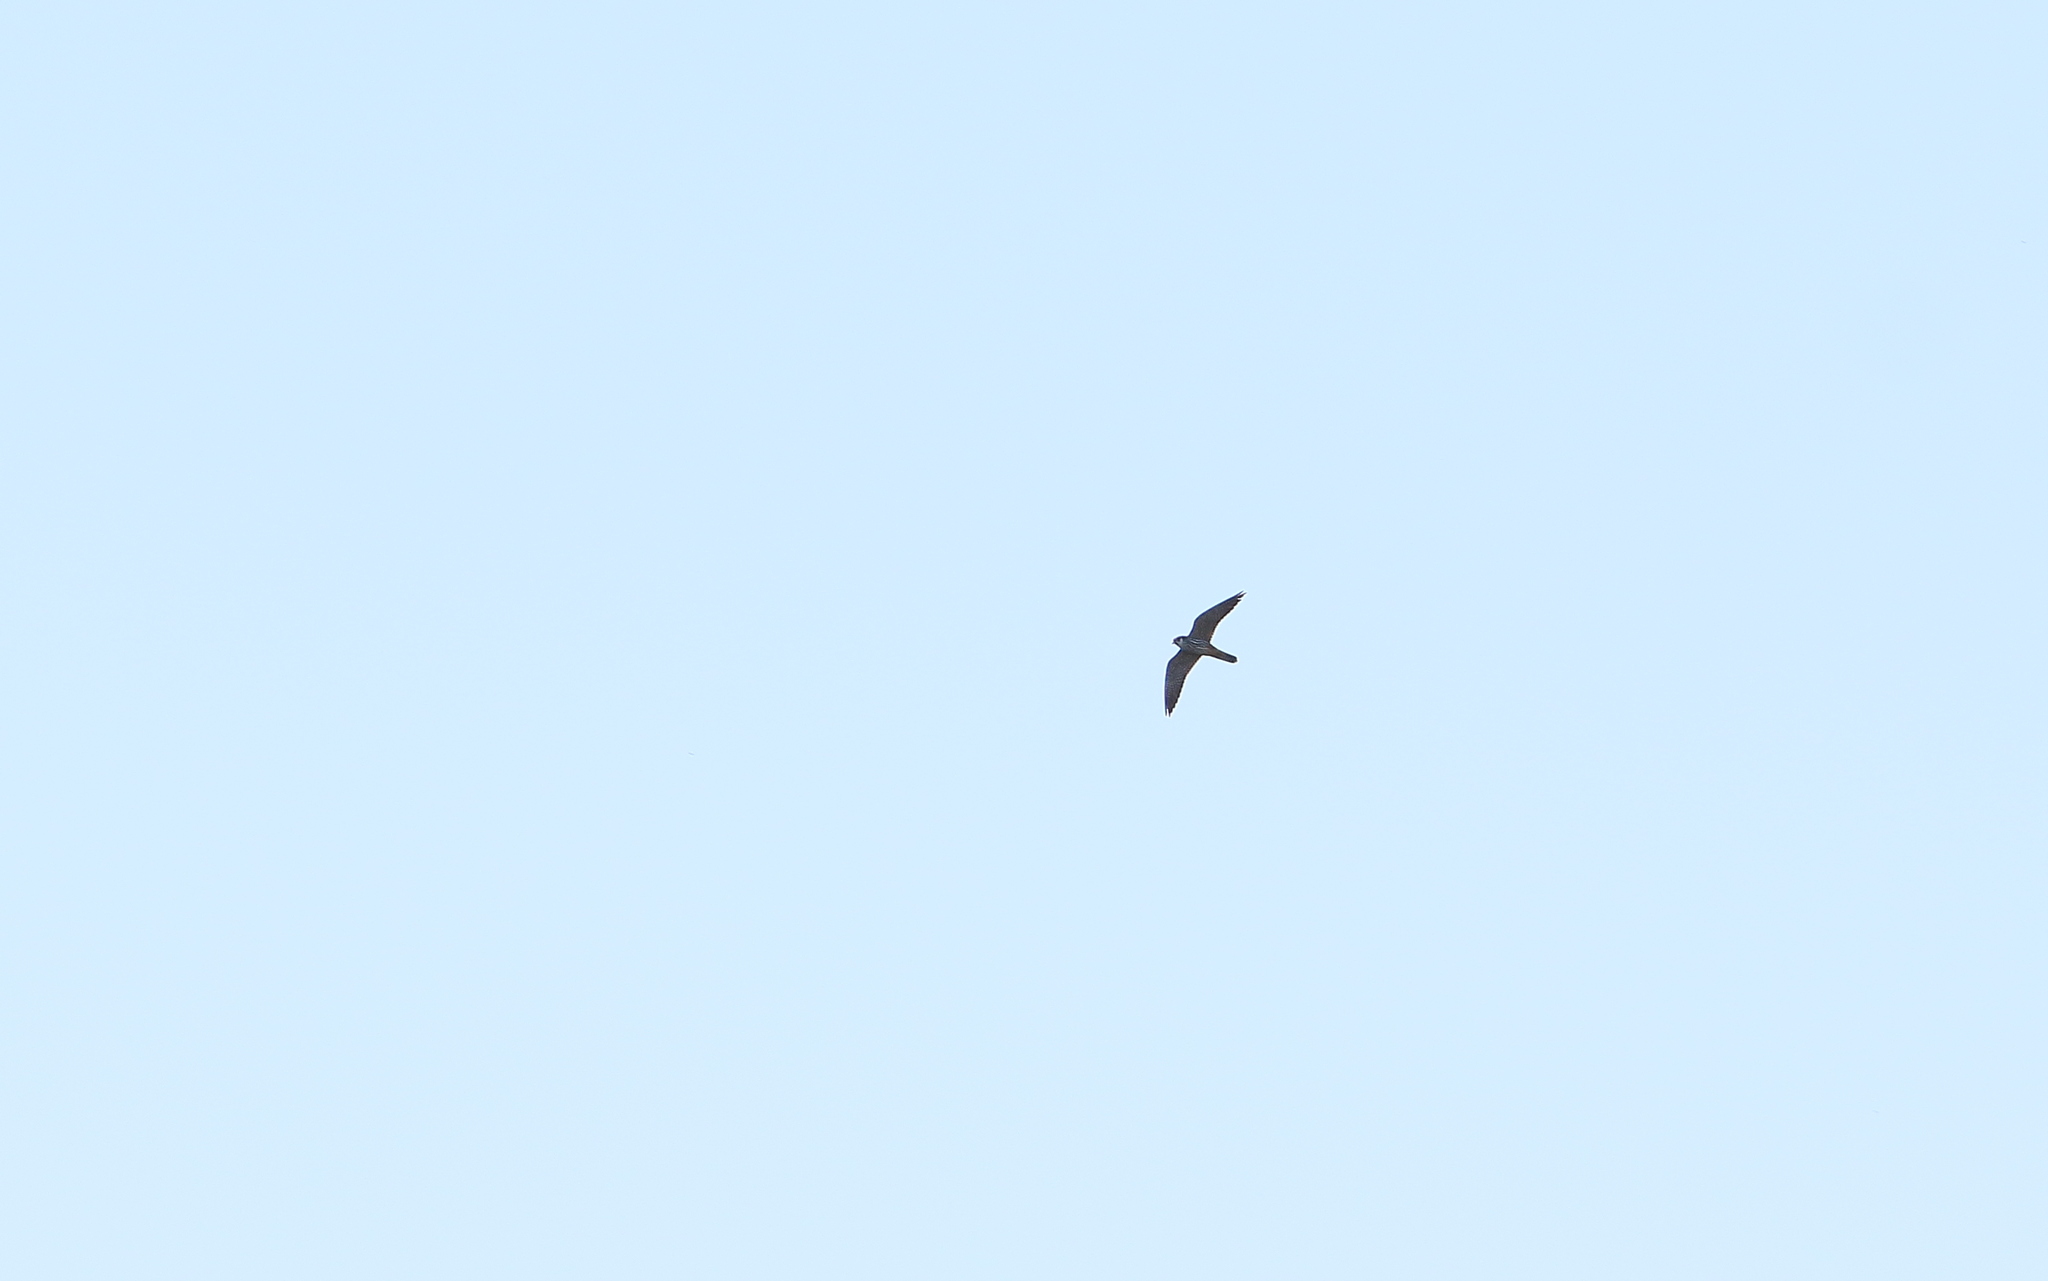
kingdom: Animalia
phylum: Chordata
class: Aves
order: Falconiformes
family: Falconidae
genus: Falco
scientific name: Falco subbuteo
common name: Eurasian hobby
